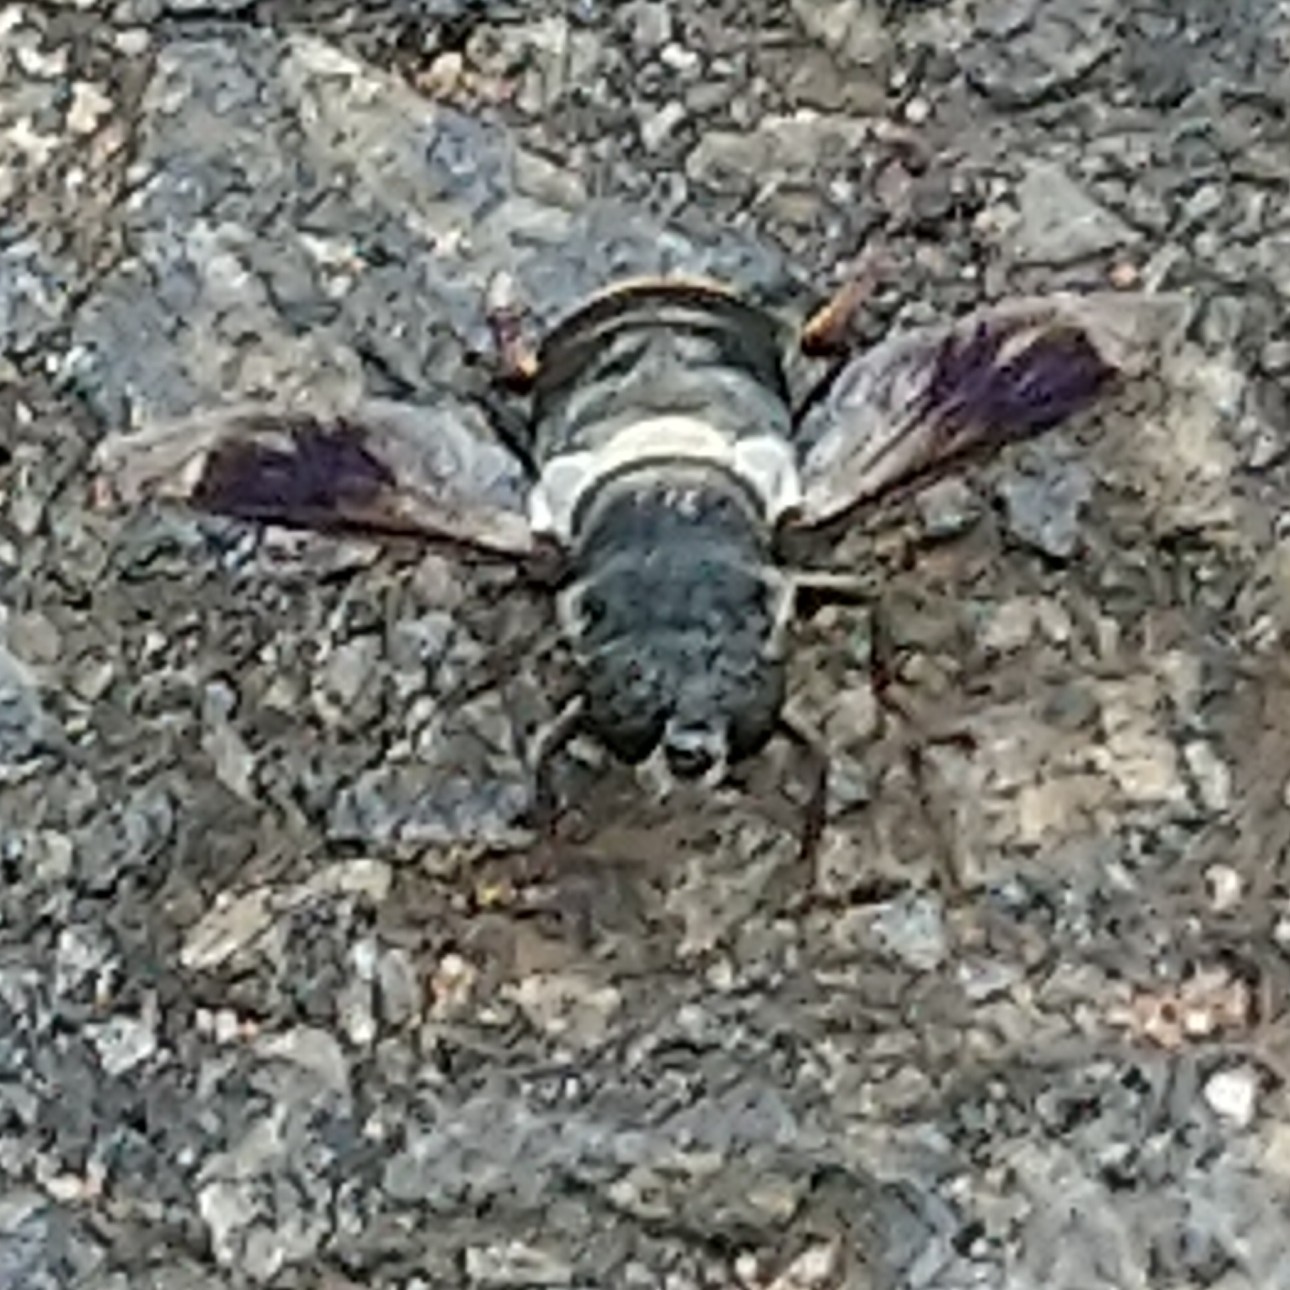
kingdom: Animalia
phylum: Arthropoda
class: Insecta
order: Diptera
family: Syrphidae
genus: Senaspis
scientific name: Senaspis haemorrhoa
